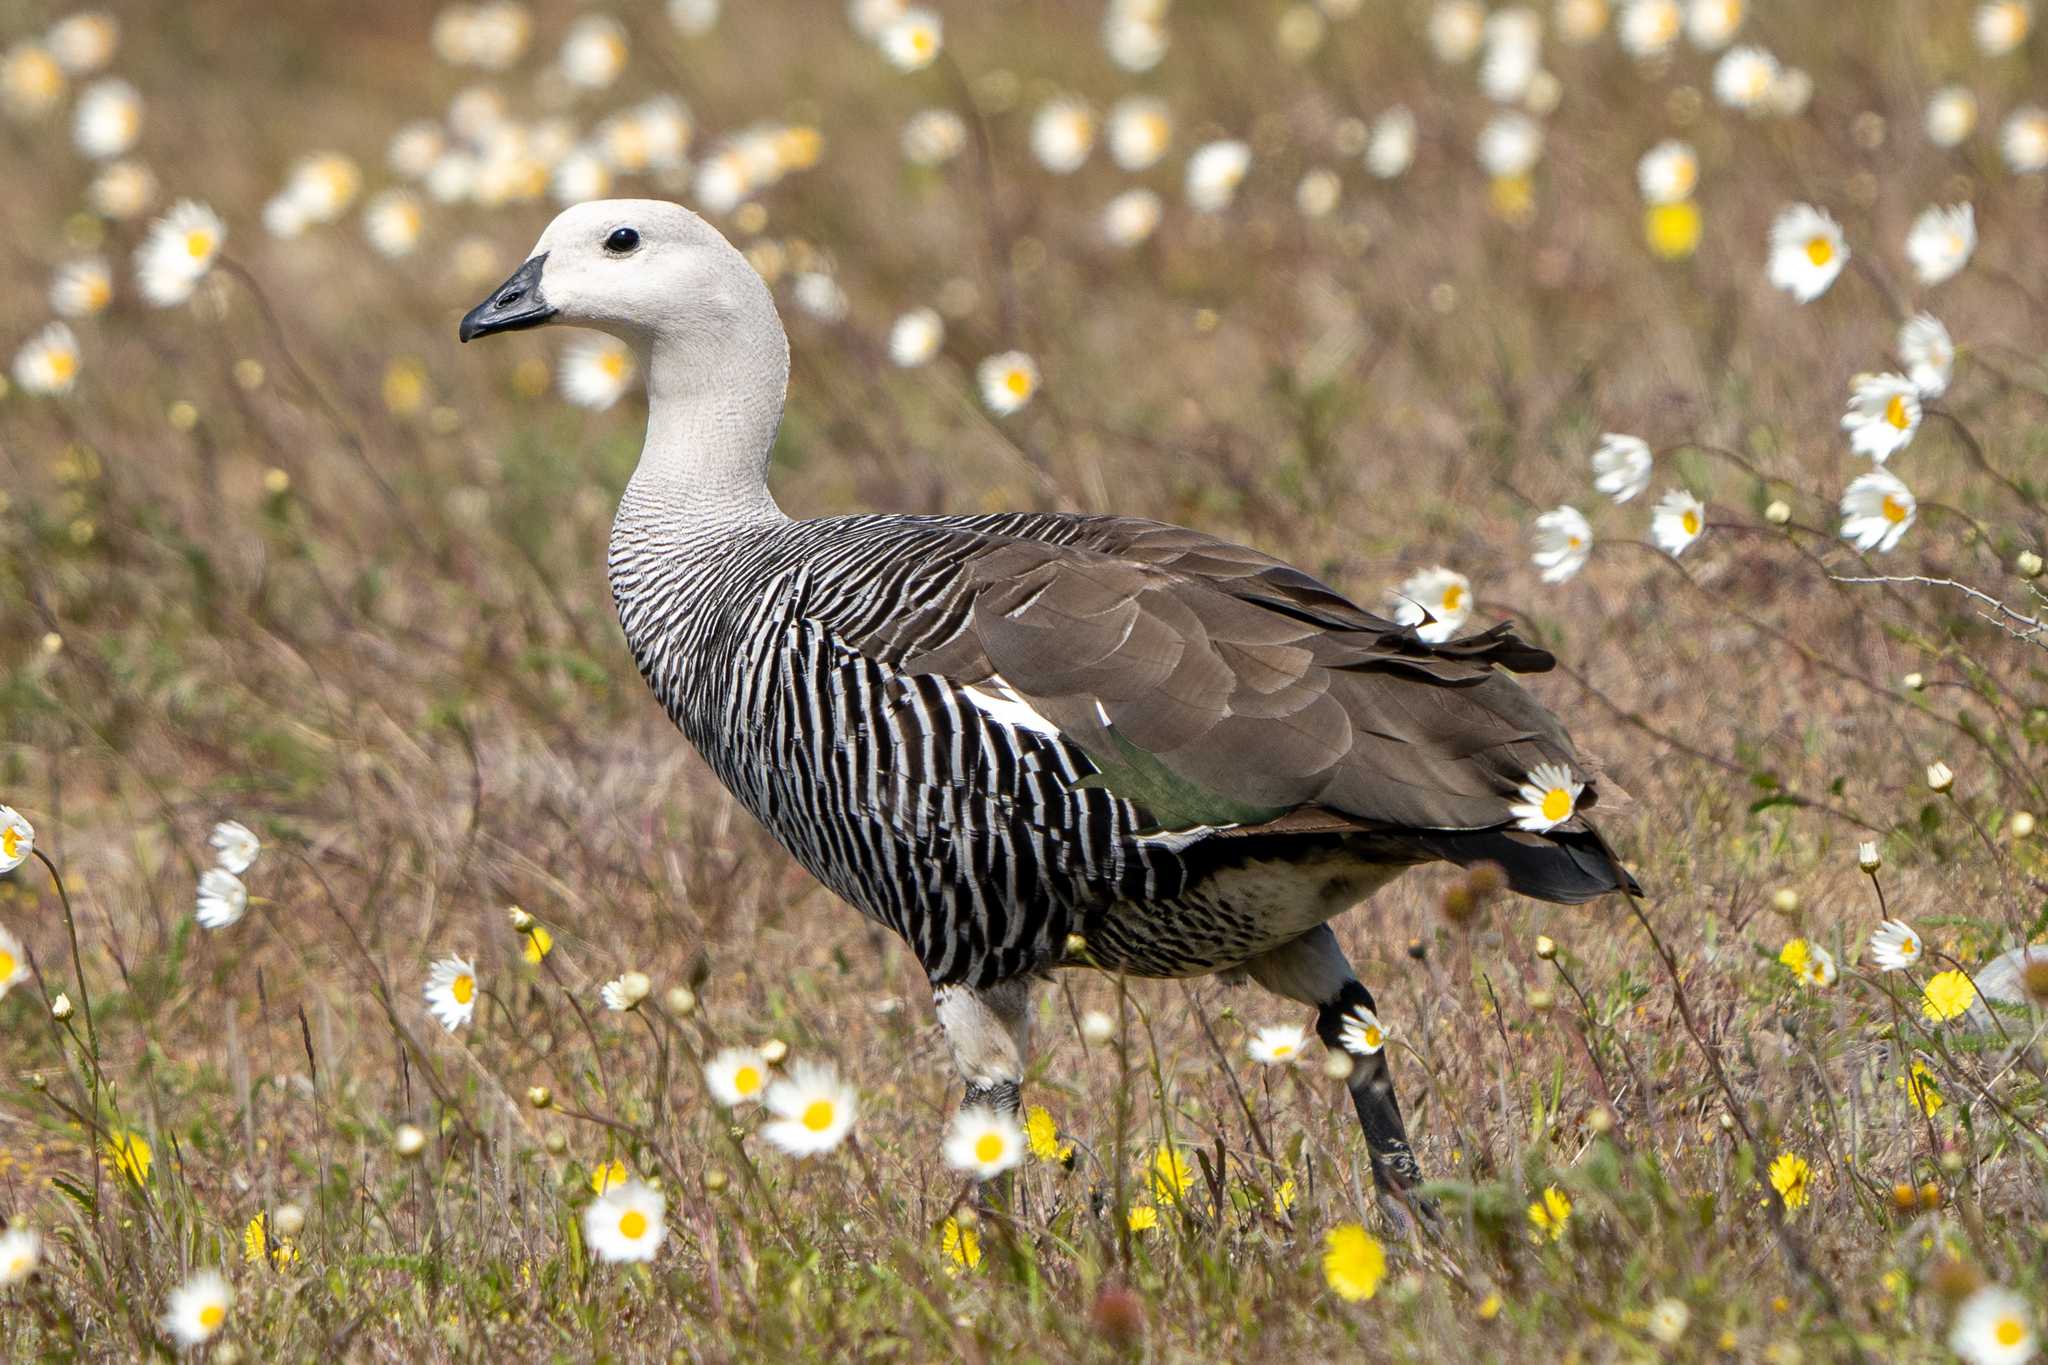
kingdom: Animalia
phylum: Chordata
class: Aves
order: Anseriformes
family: Anatidae
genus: Chloephaga
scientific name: Chloephaga picta
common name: Upland goose
